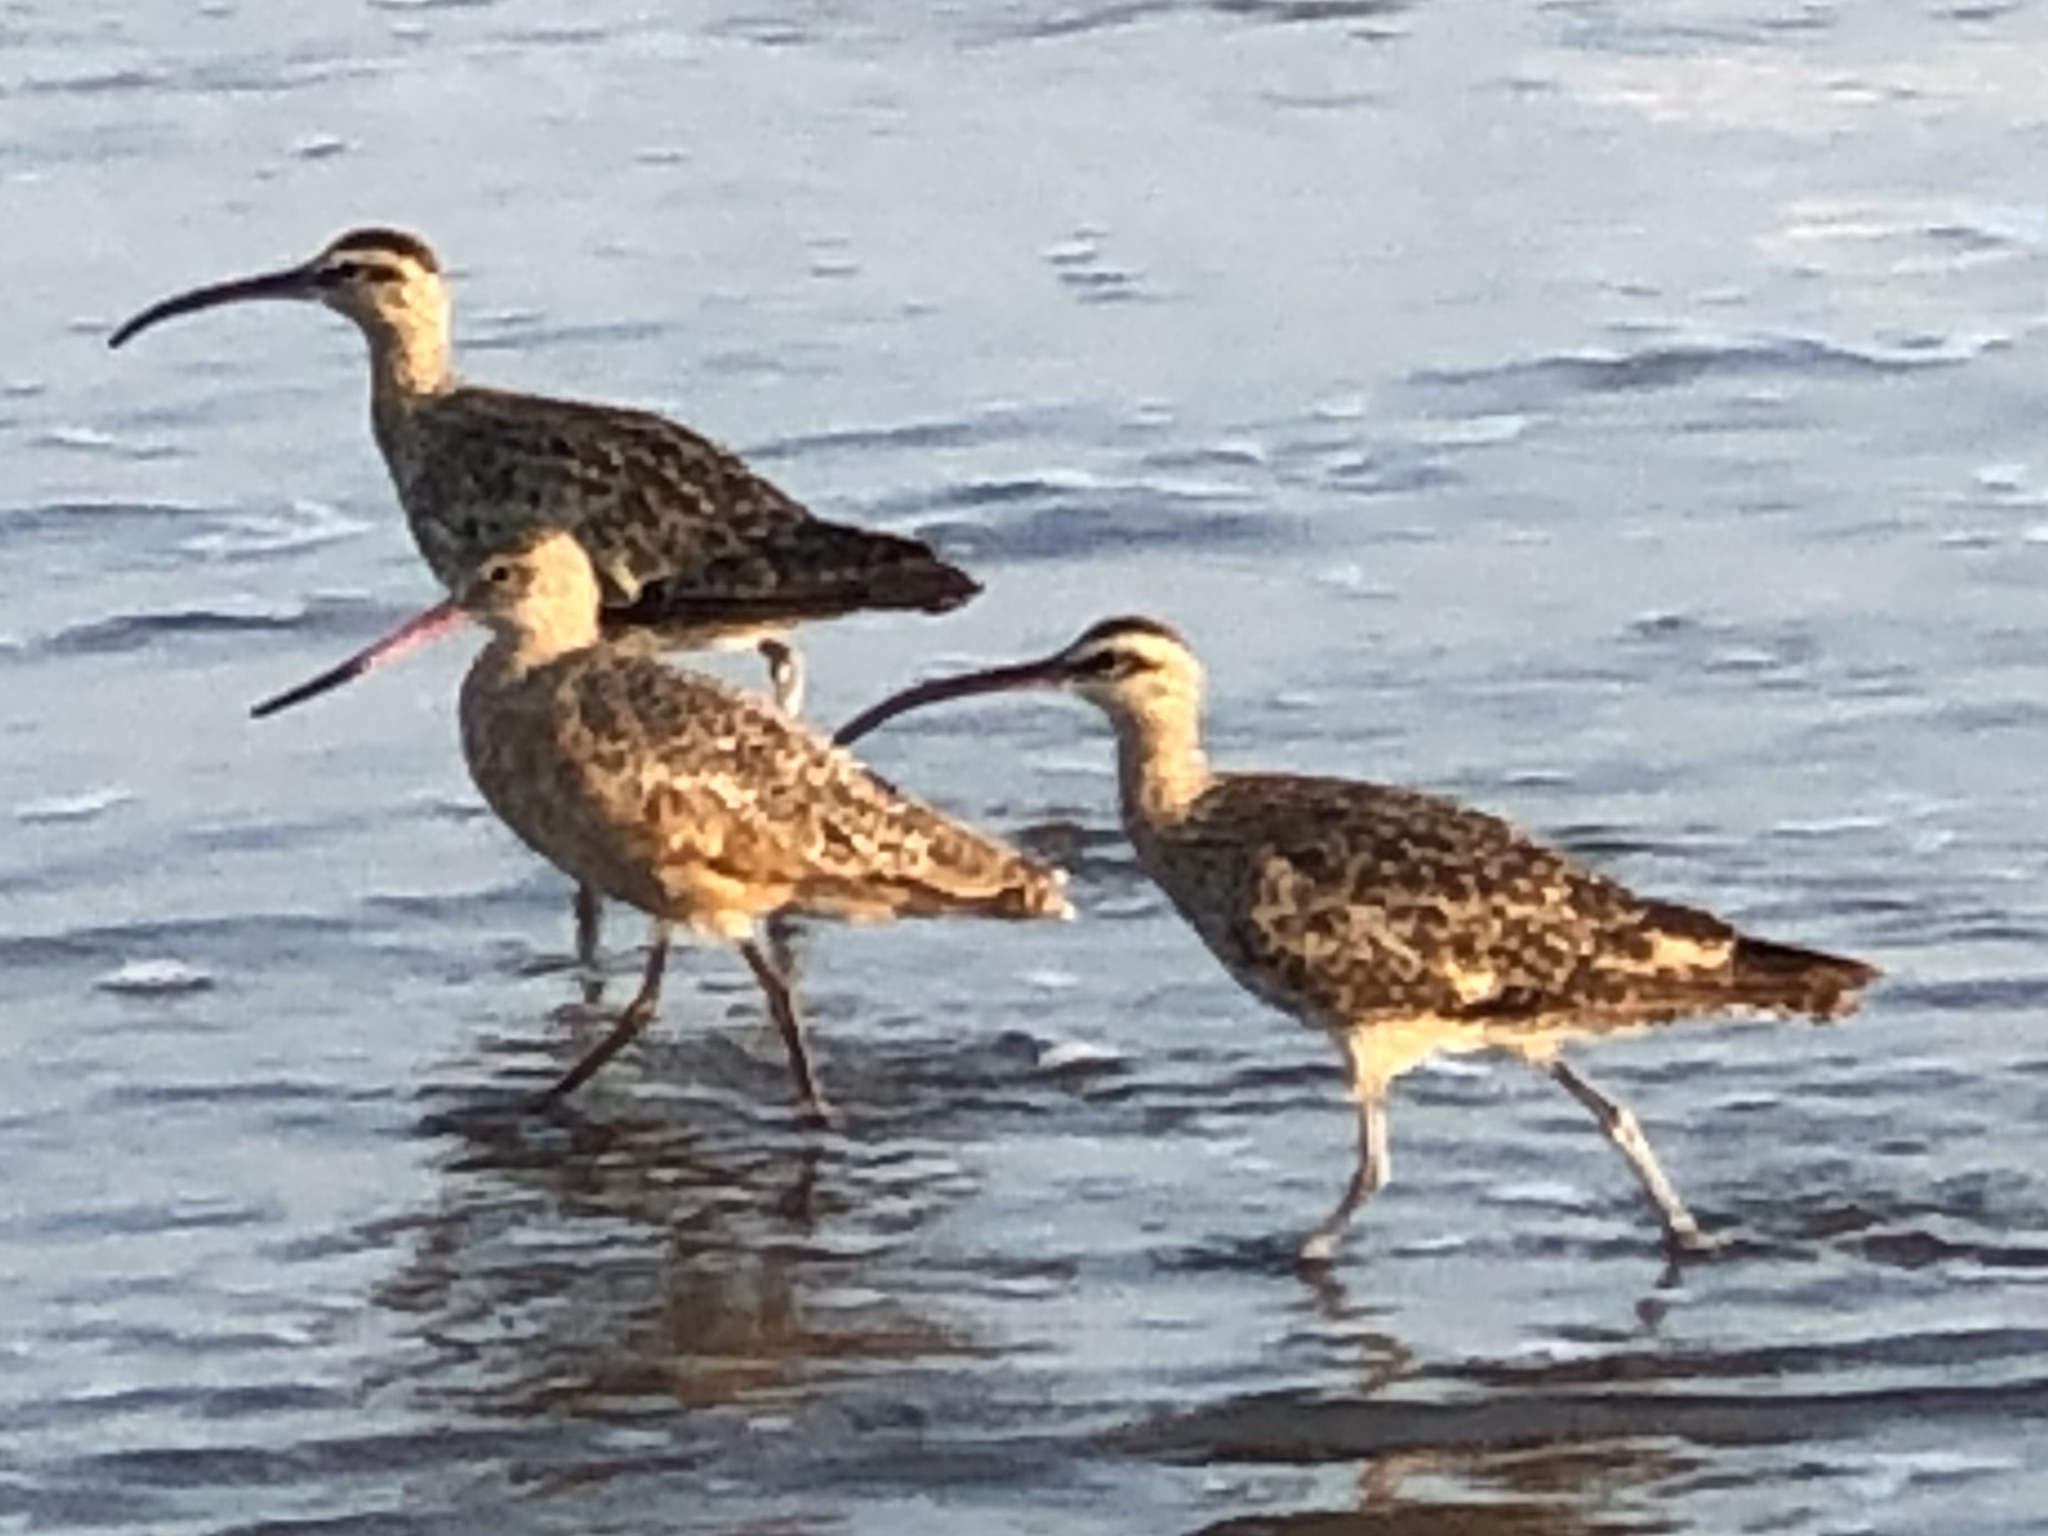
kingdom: Animalia
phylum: Chordata
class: Aves
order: Charadriiformes
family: Scolopacidae
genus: Numenius
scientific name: Numenius phaeopus
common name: Whimbrel
